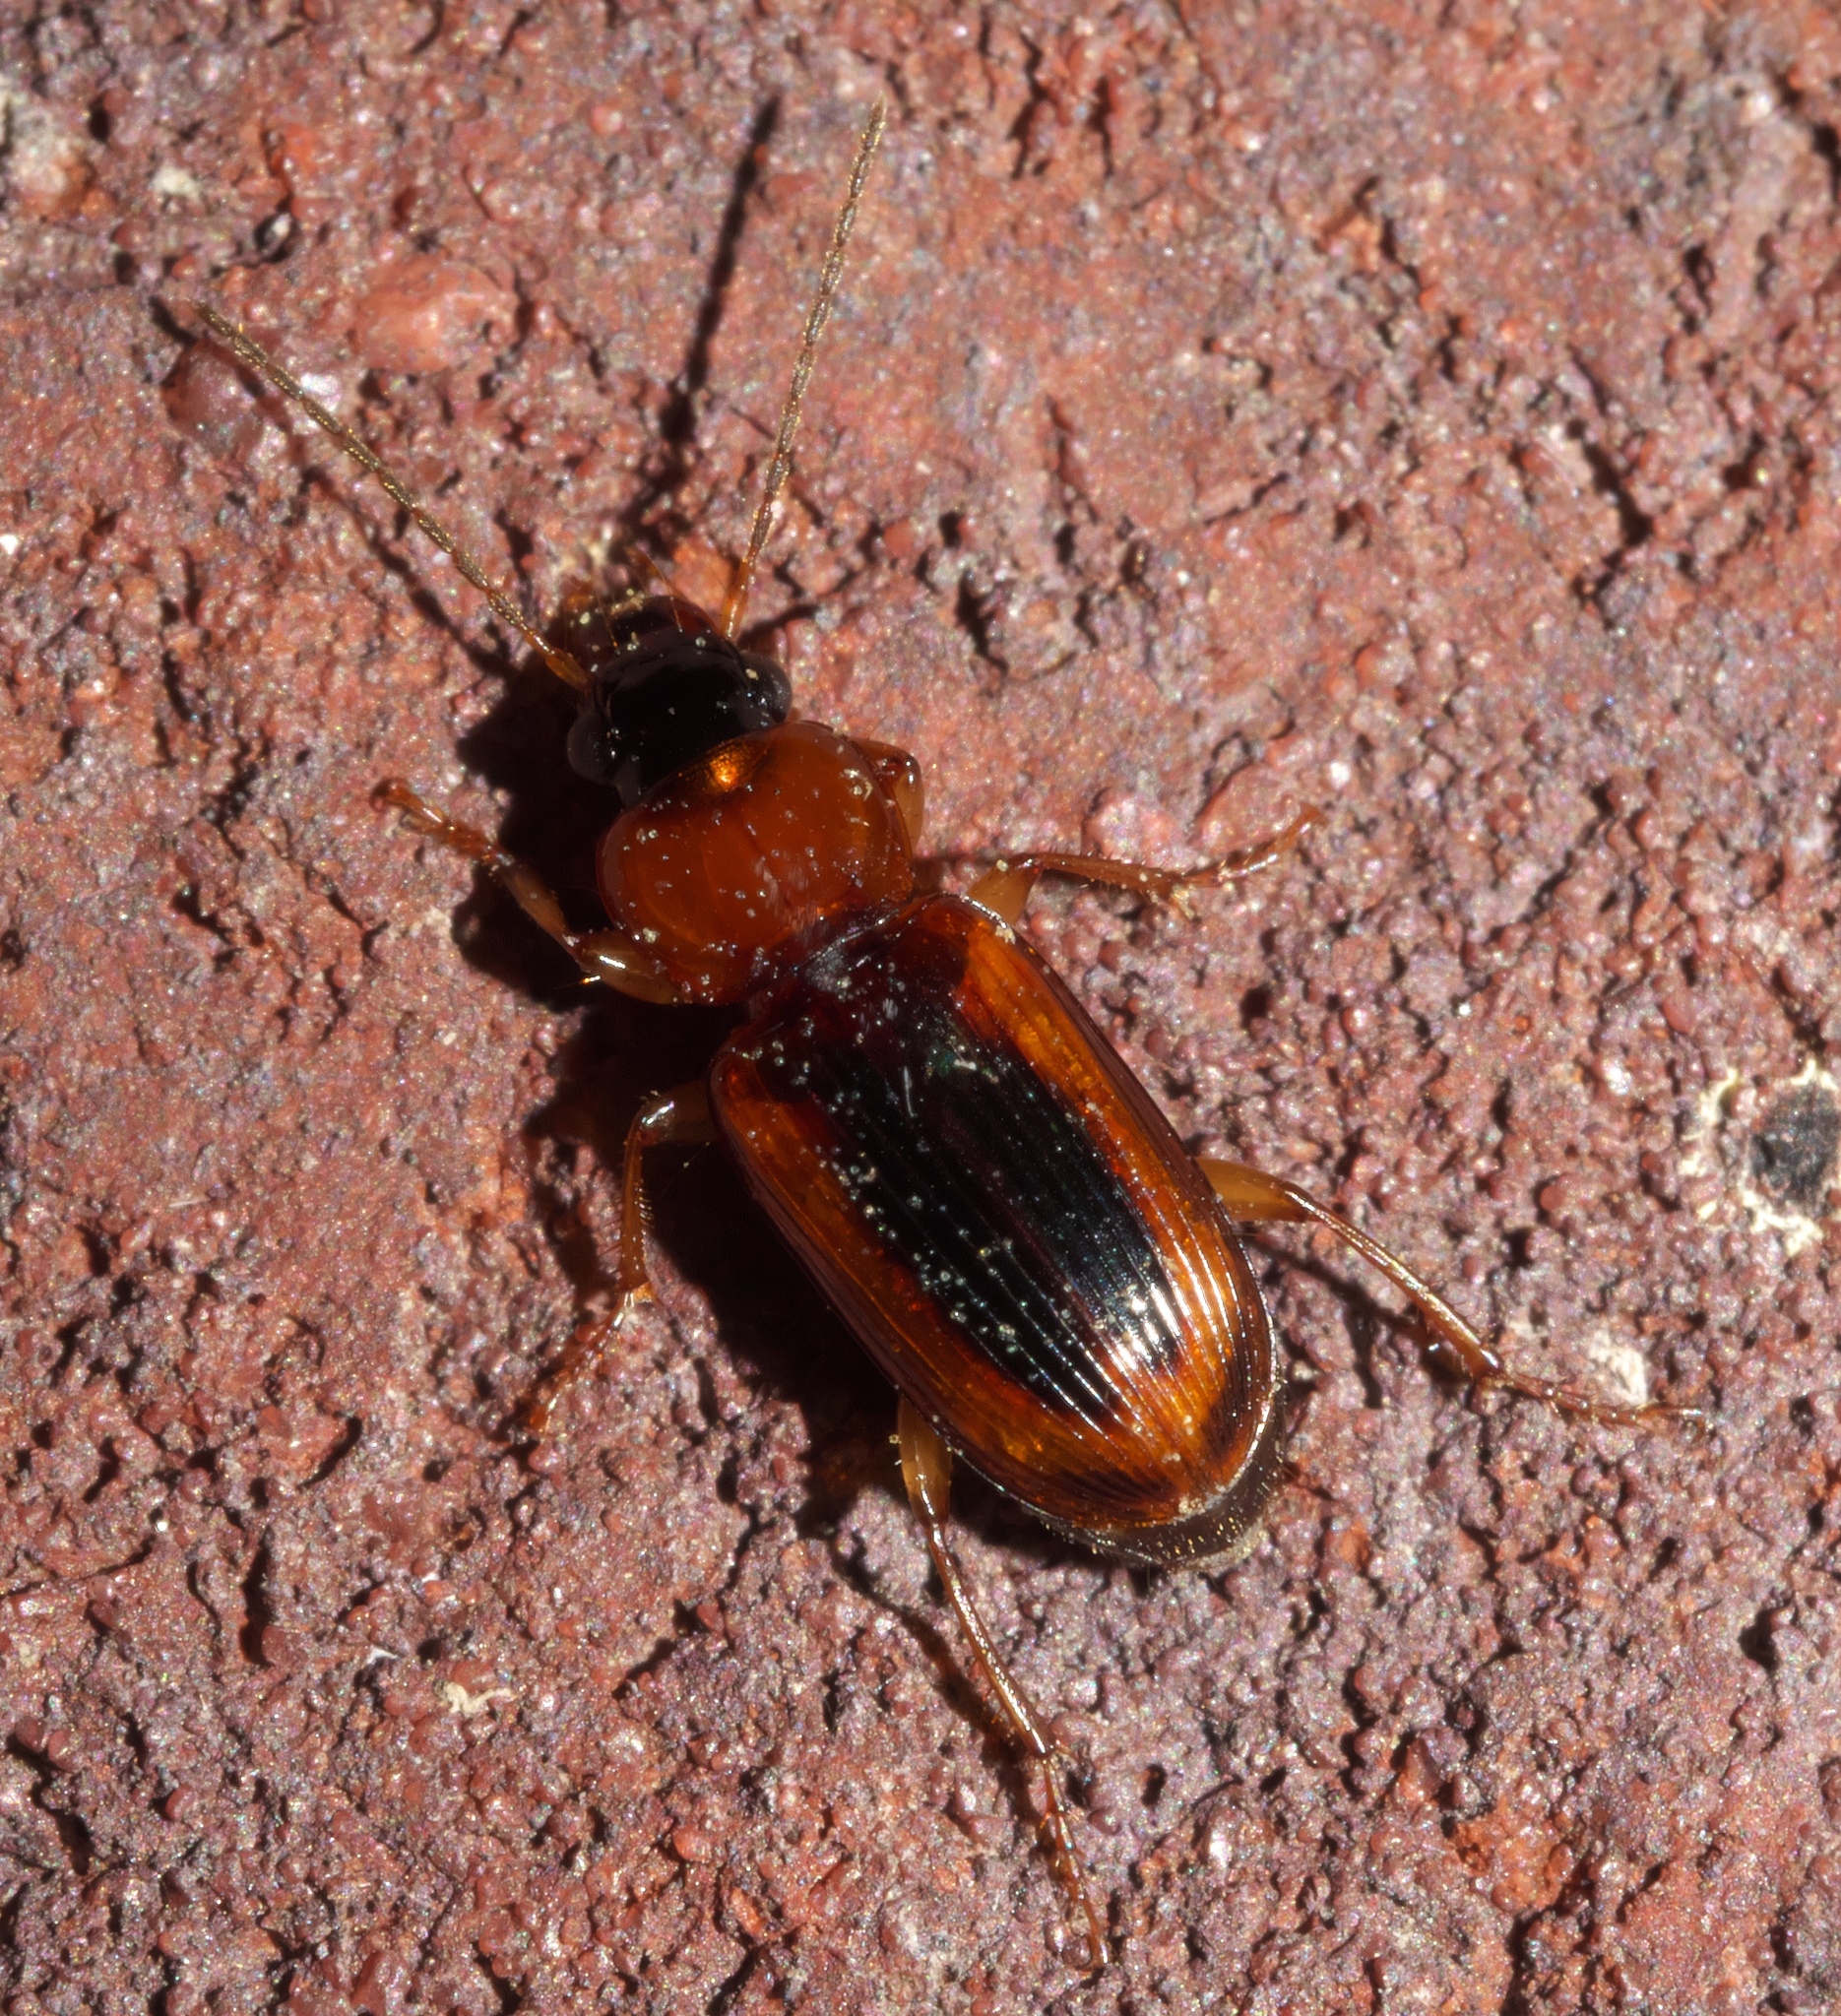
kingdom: Animalia
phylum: Arthropoda
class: Insecta
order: Coleoptera
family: Carabidae
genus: Stenolophus
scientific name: Stenolophus dissimilis
